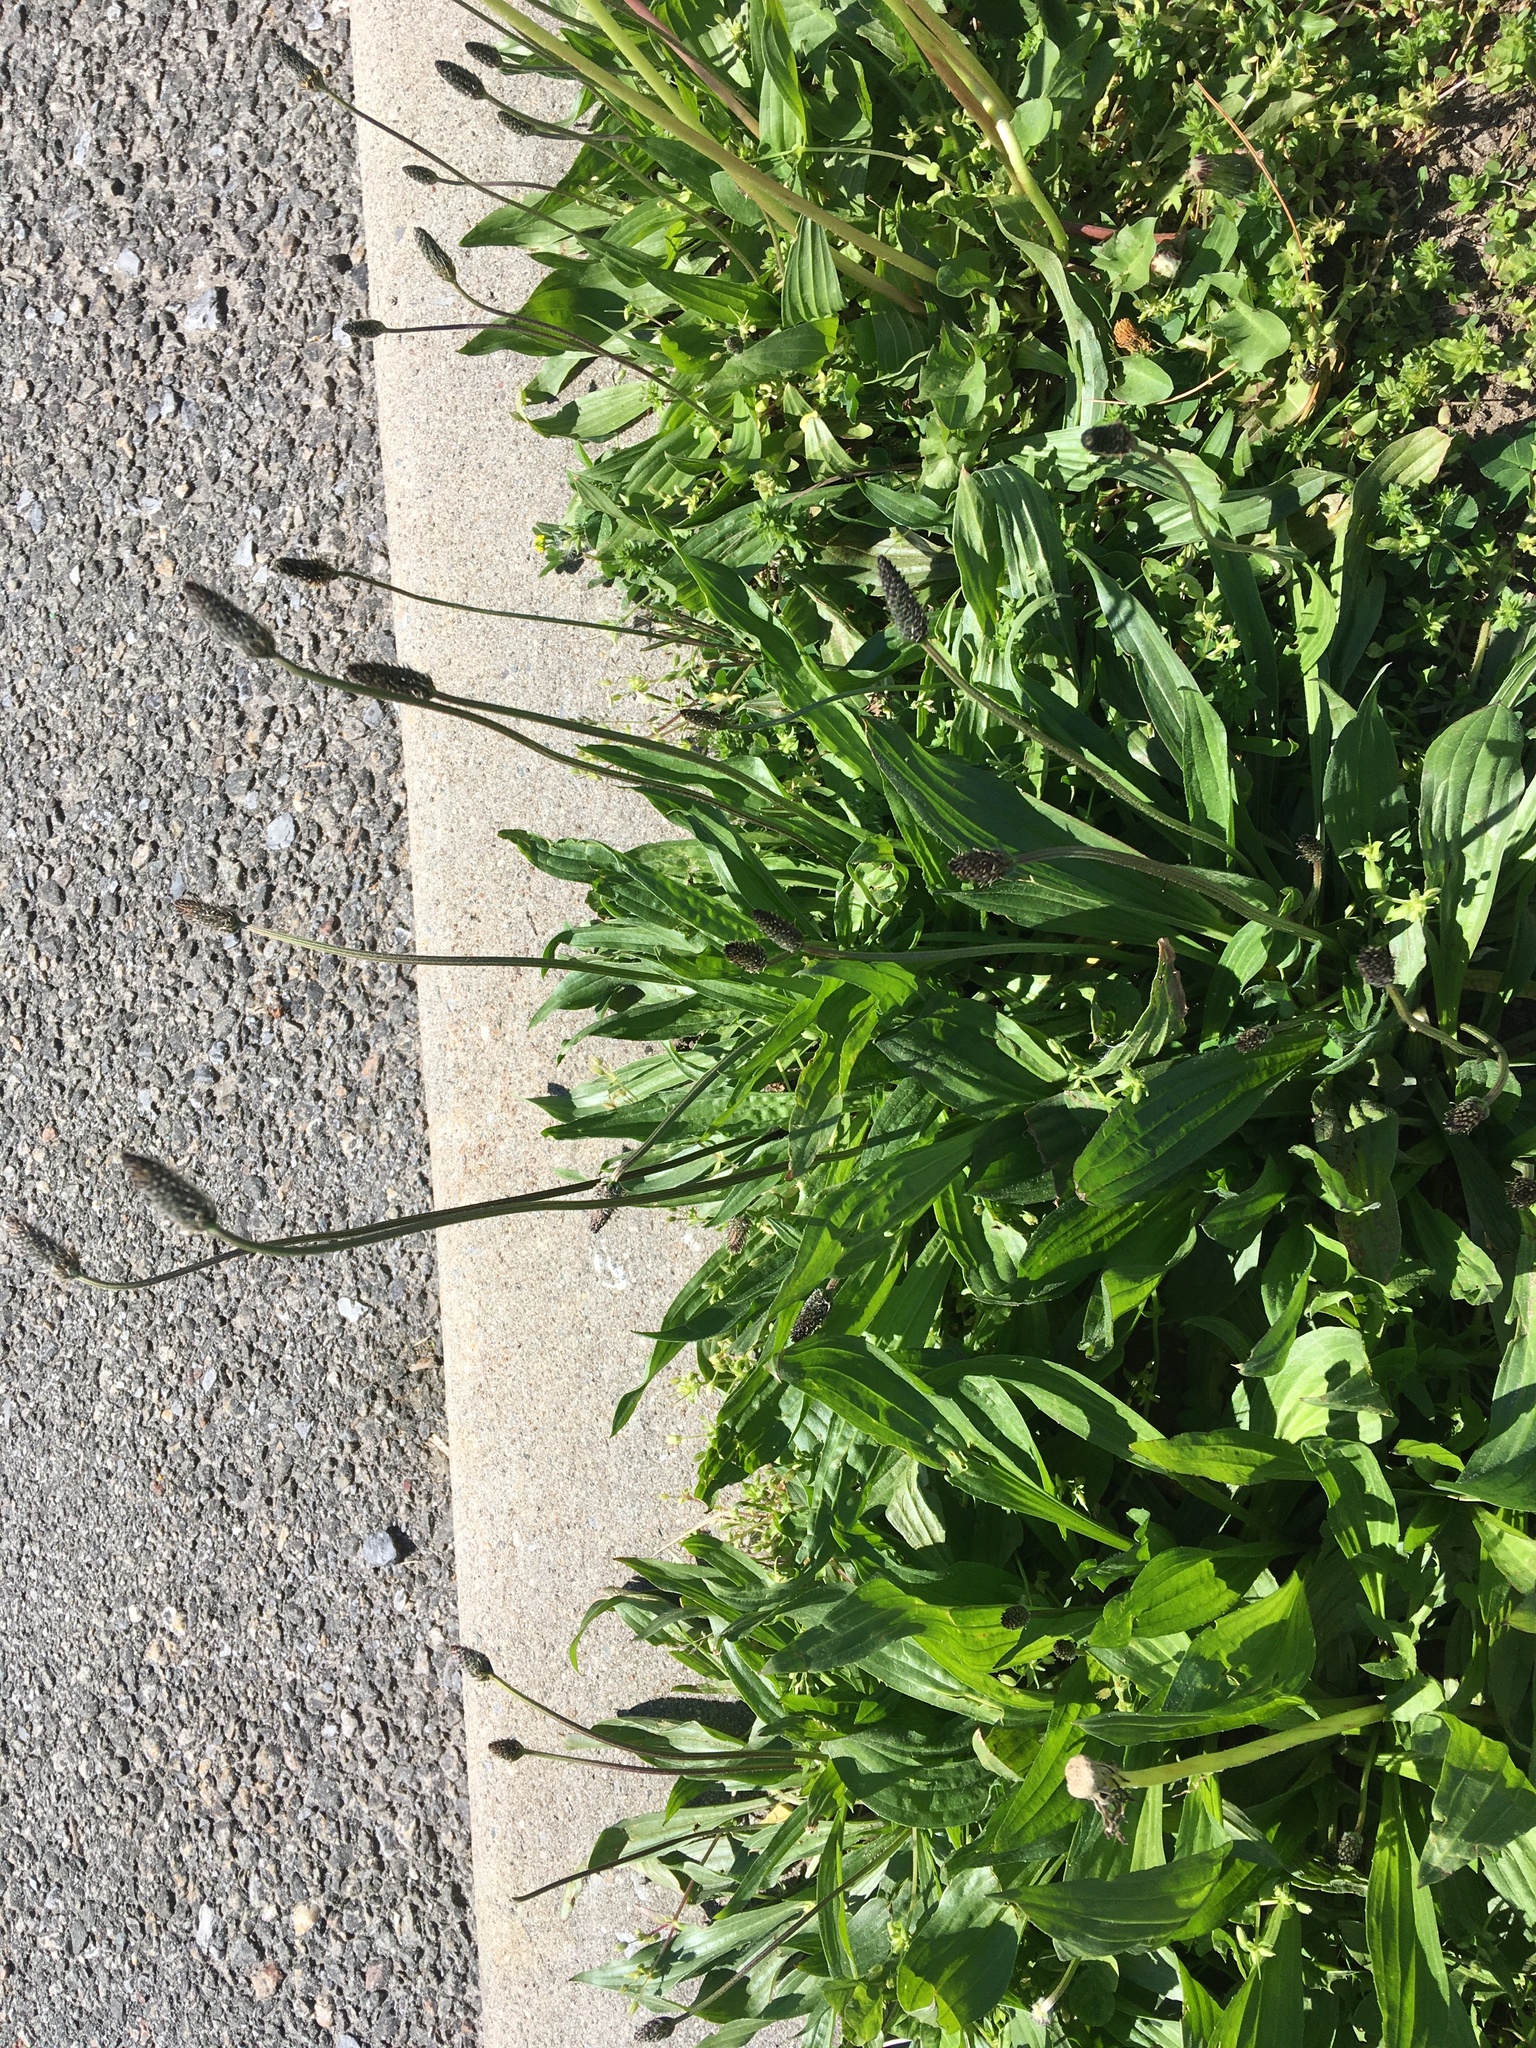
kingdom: Plantae
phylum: Tracheophyta
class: Magnoliopsida
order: Lamiales
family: Plantaginaceae
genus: Plantago
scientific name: Plantago lanceolata
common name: Ribwort plantain
